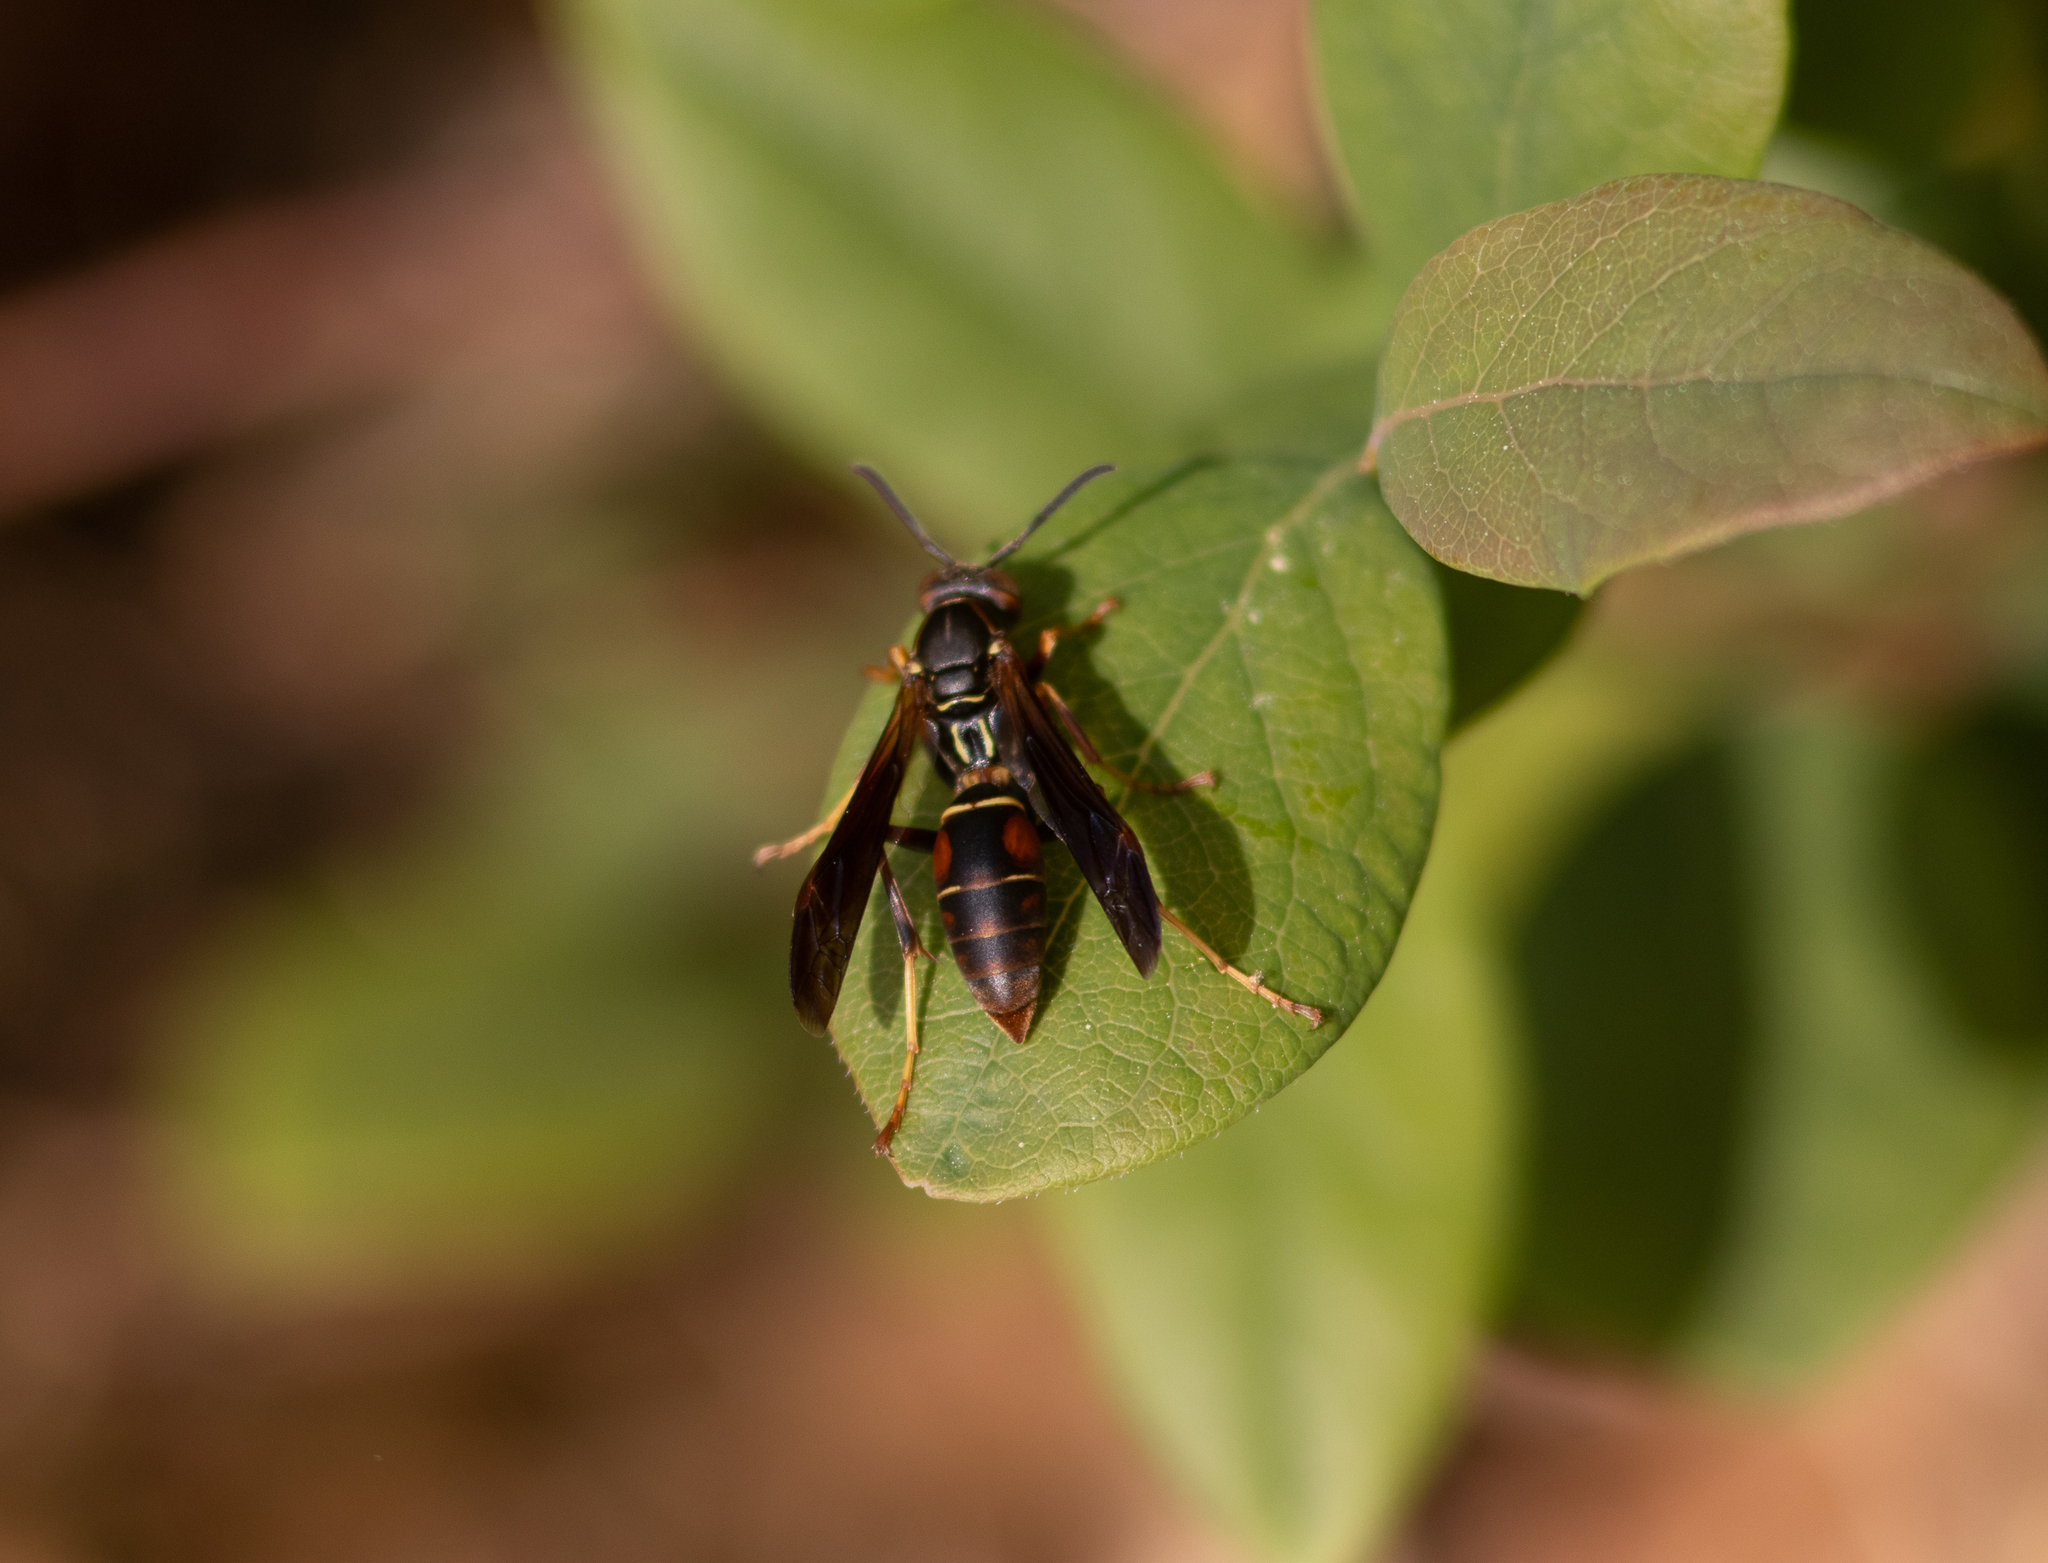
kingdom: Animalia
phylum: Arthropoda
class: Insecta
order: Hymenoptera
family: Eumenidae
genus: Polistes
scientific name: Polistes fuscatus
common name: Dark paper wasp
